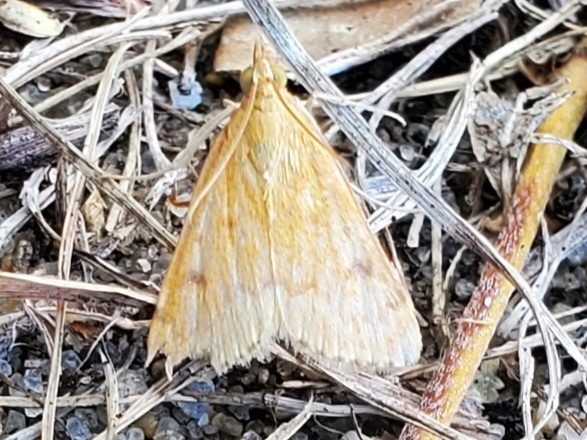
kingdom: Animalia
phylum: Arthropoda
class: Insecta
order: Lepidoptera
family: Crambidae
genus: Achyra
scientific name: Achyra rantalis
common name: Garden webworm
